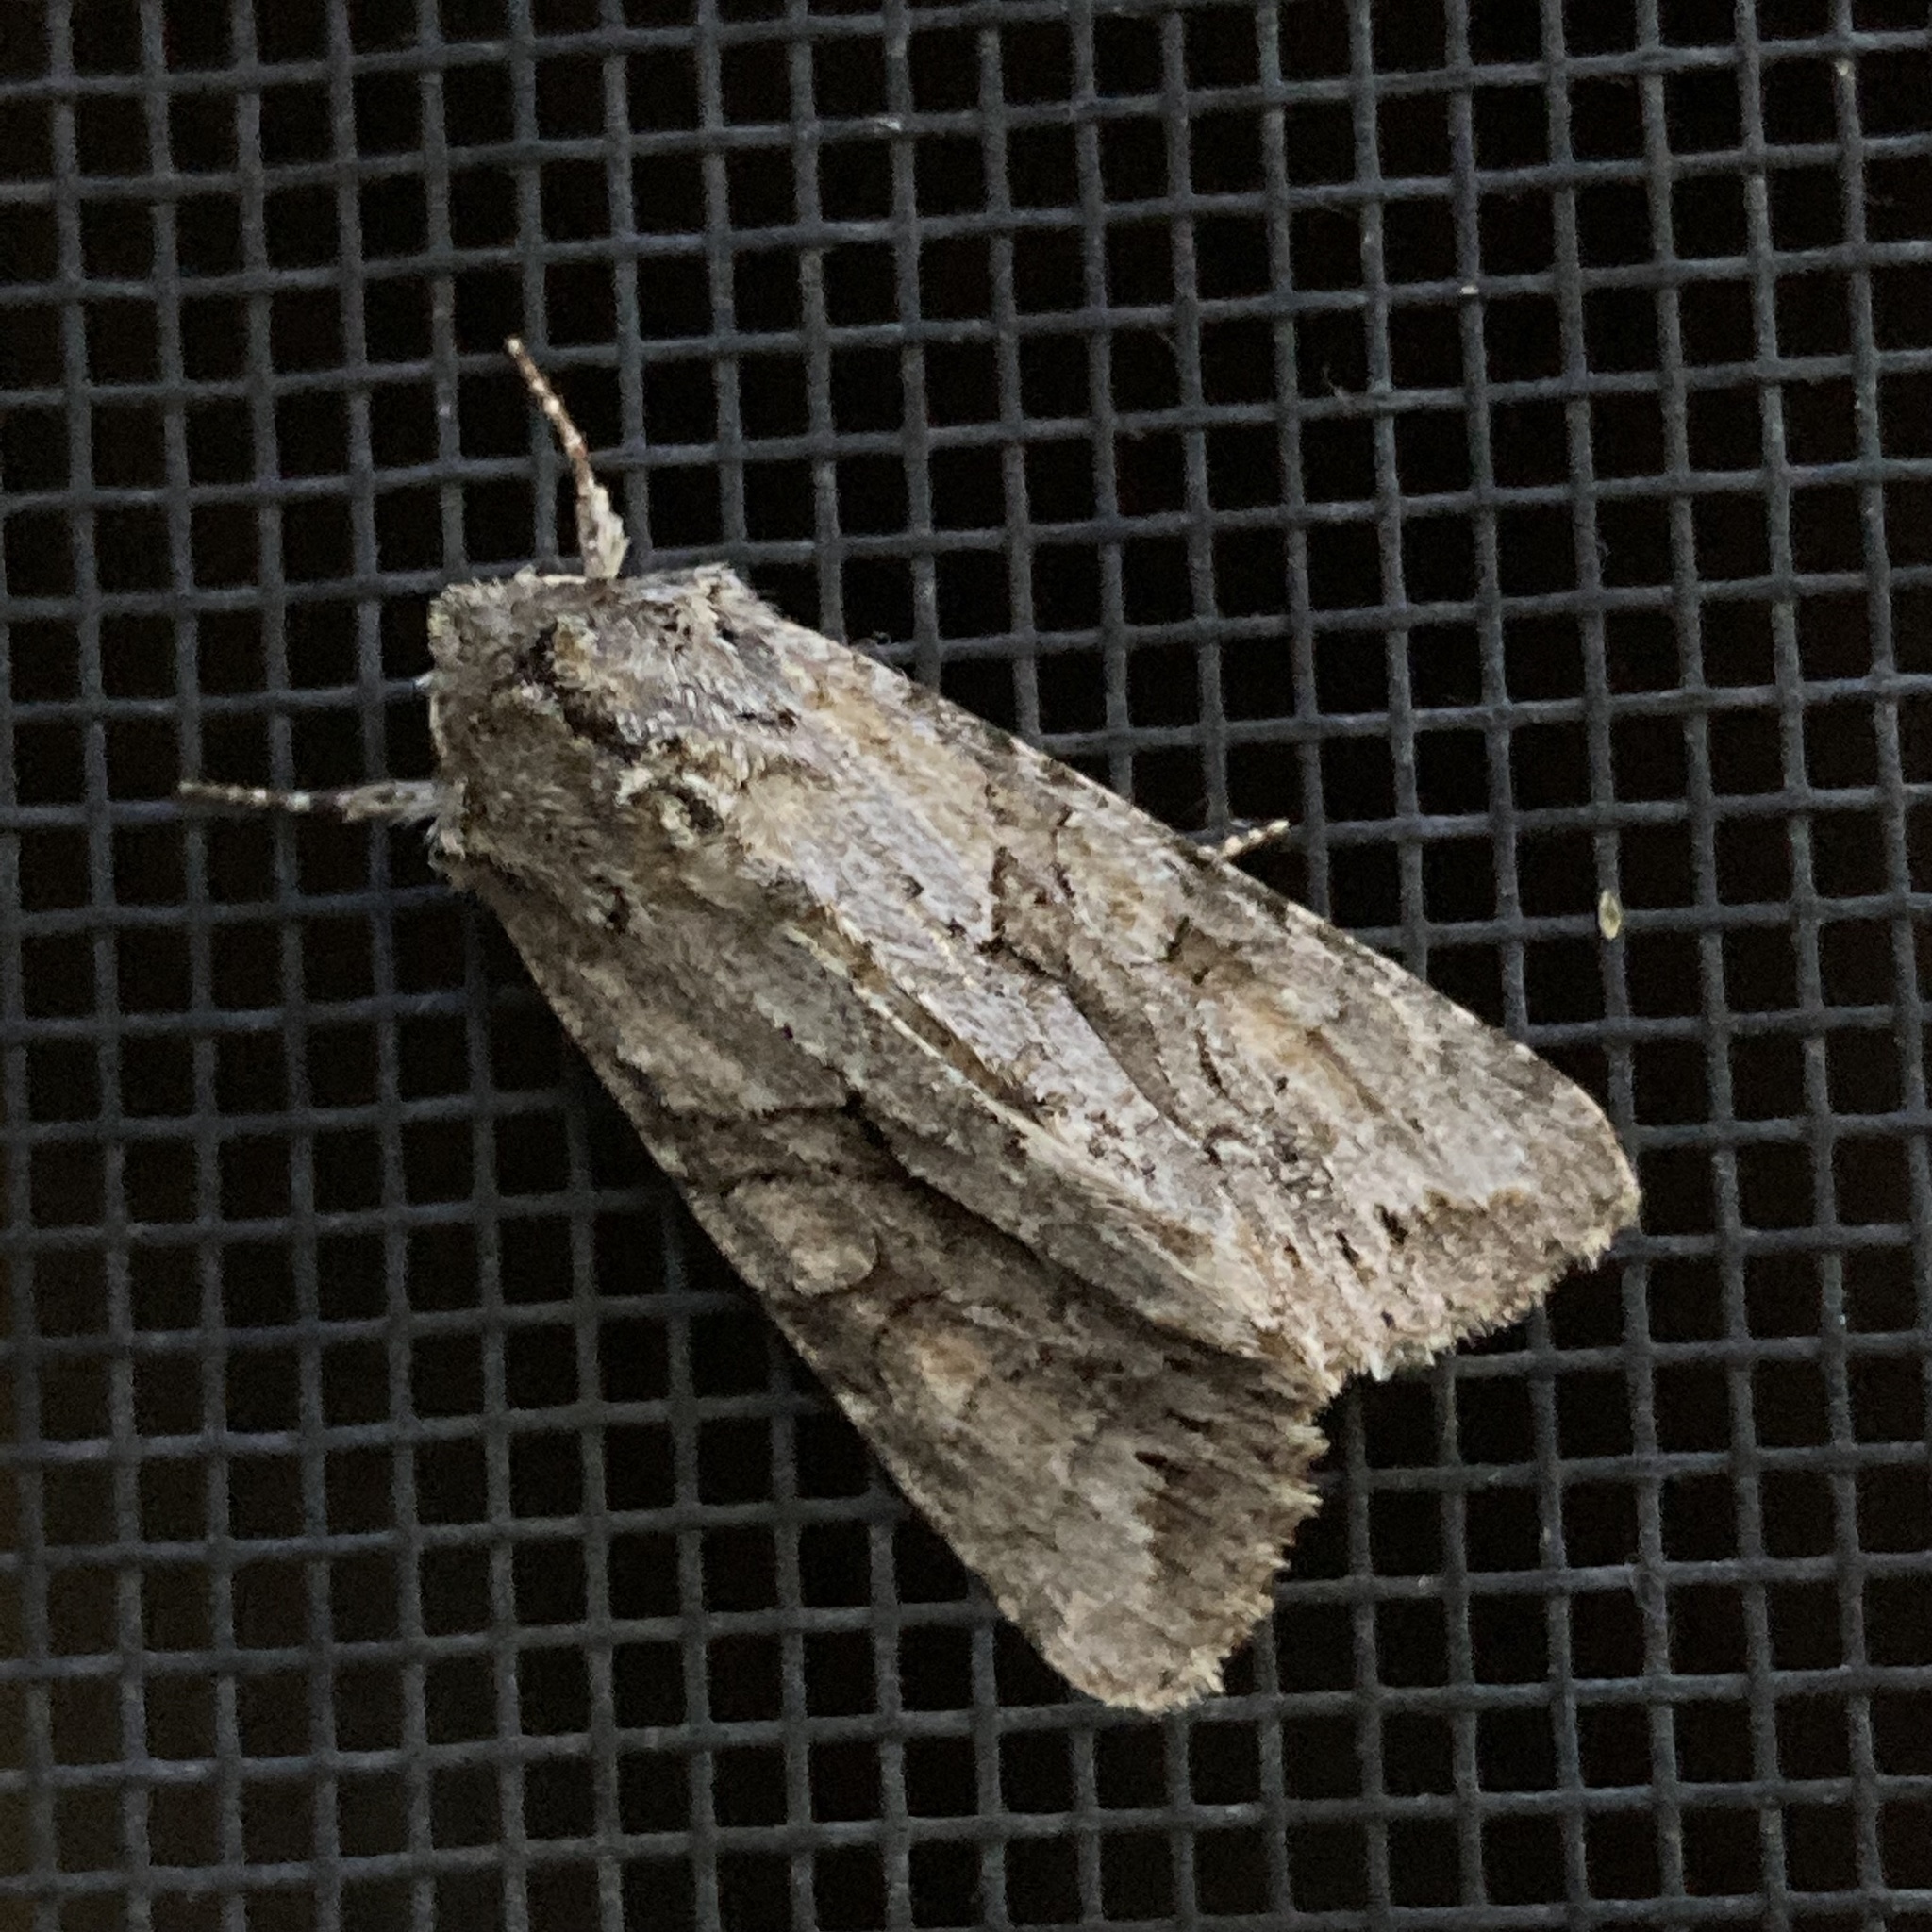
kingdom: Animalia
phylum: Arthropoda
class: Insecta
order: Lepidoptera
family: Noctuidae
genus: Achatia
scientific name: Achatia distincta
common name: Distinct quaker
